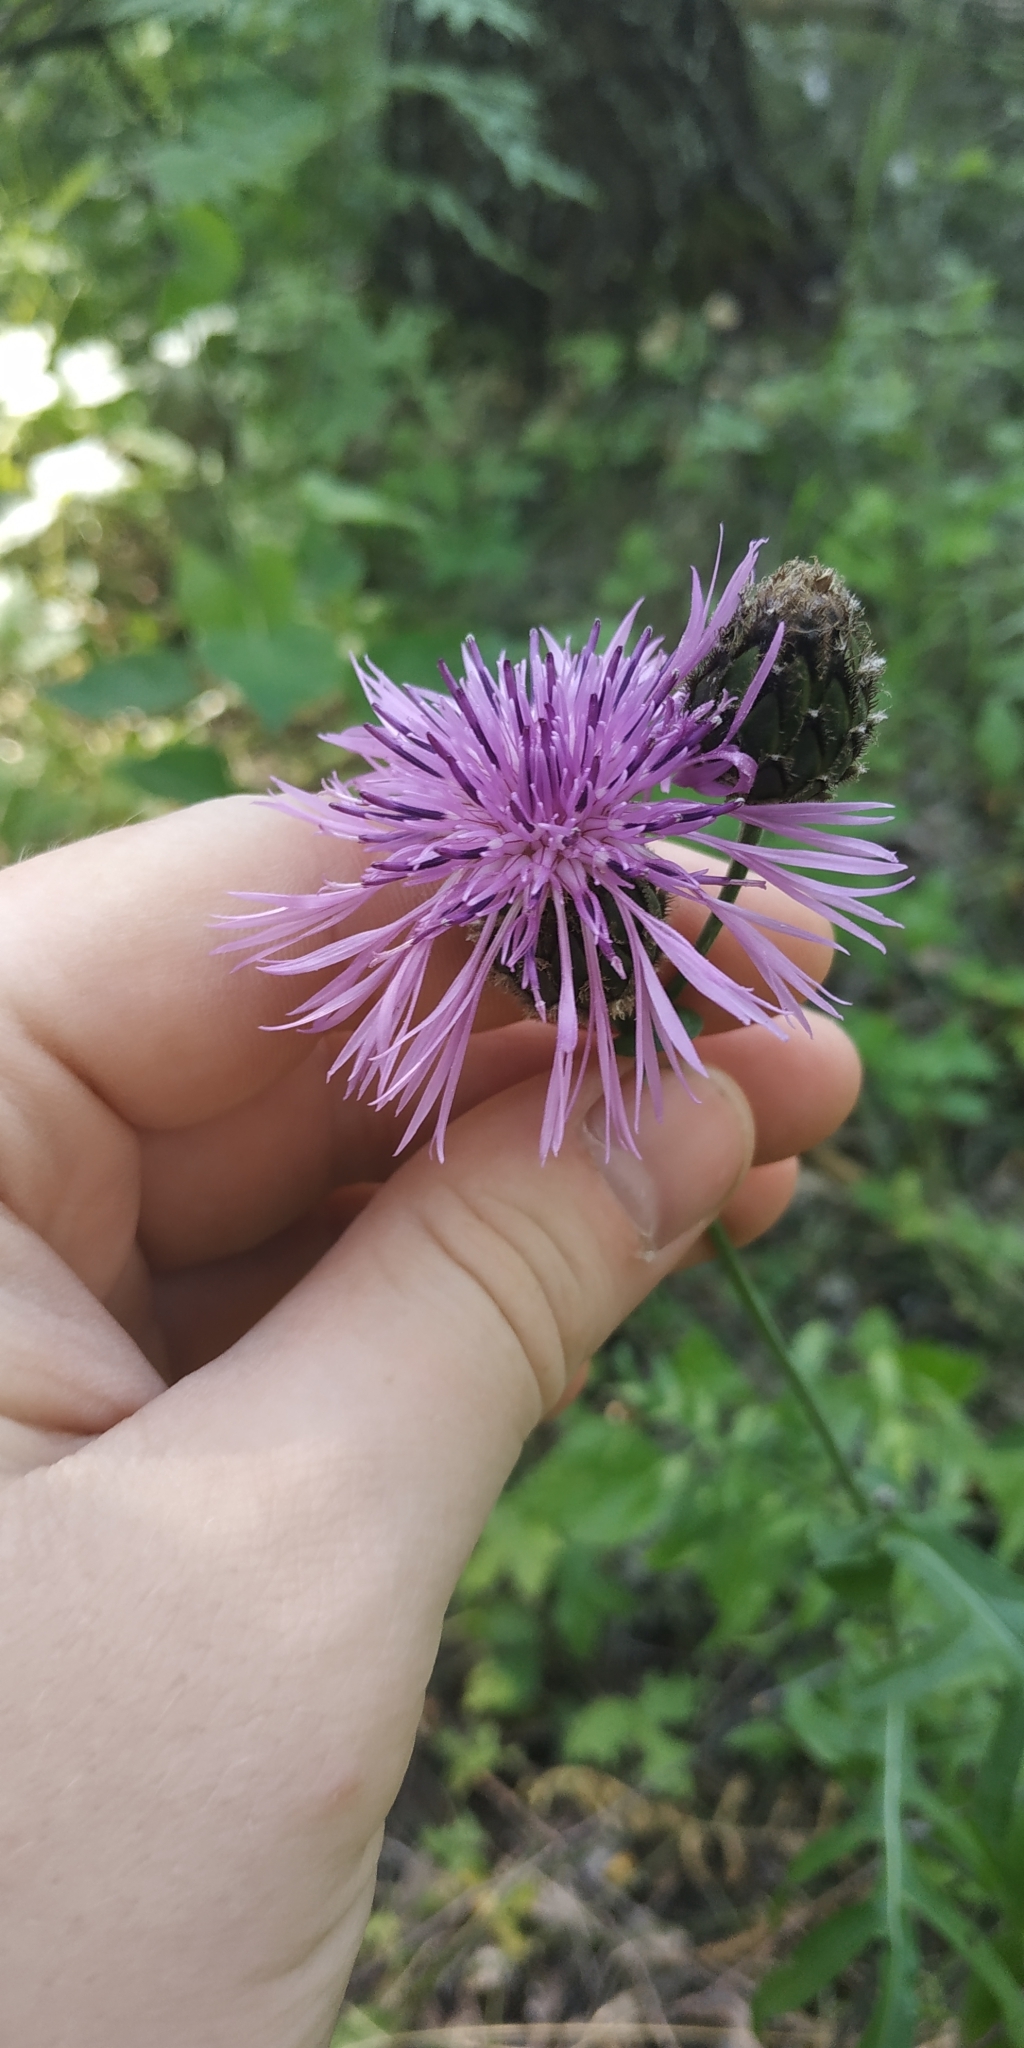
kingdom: Plantae
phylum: Tracheophyta
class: Magnoliopsida
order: Asterales
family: Asteraceae
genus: Centaurea
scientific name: Centaurea scabiosa
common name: Greater knapweed
